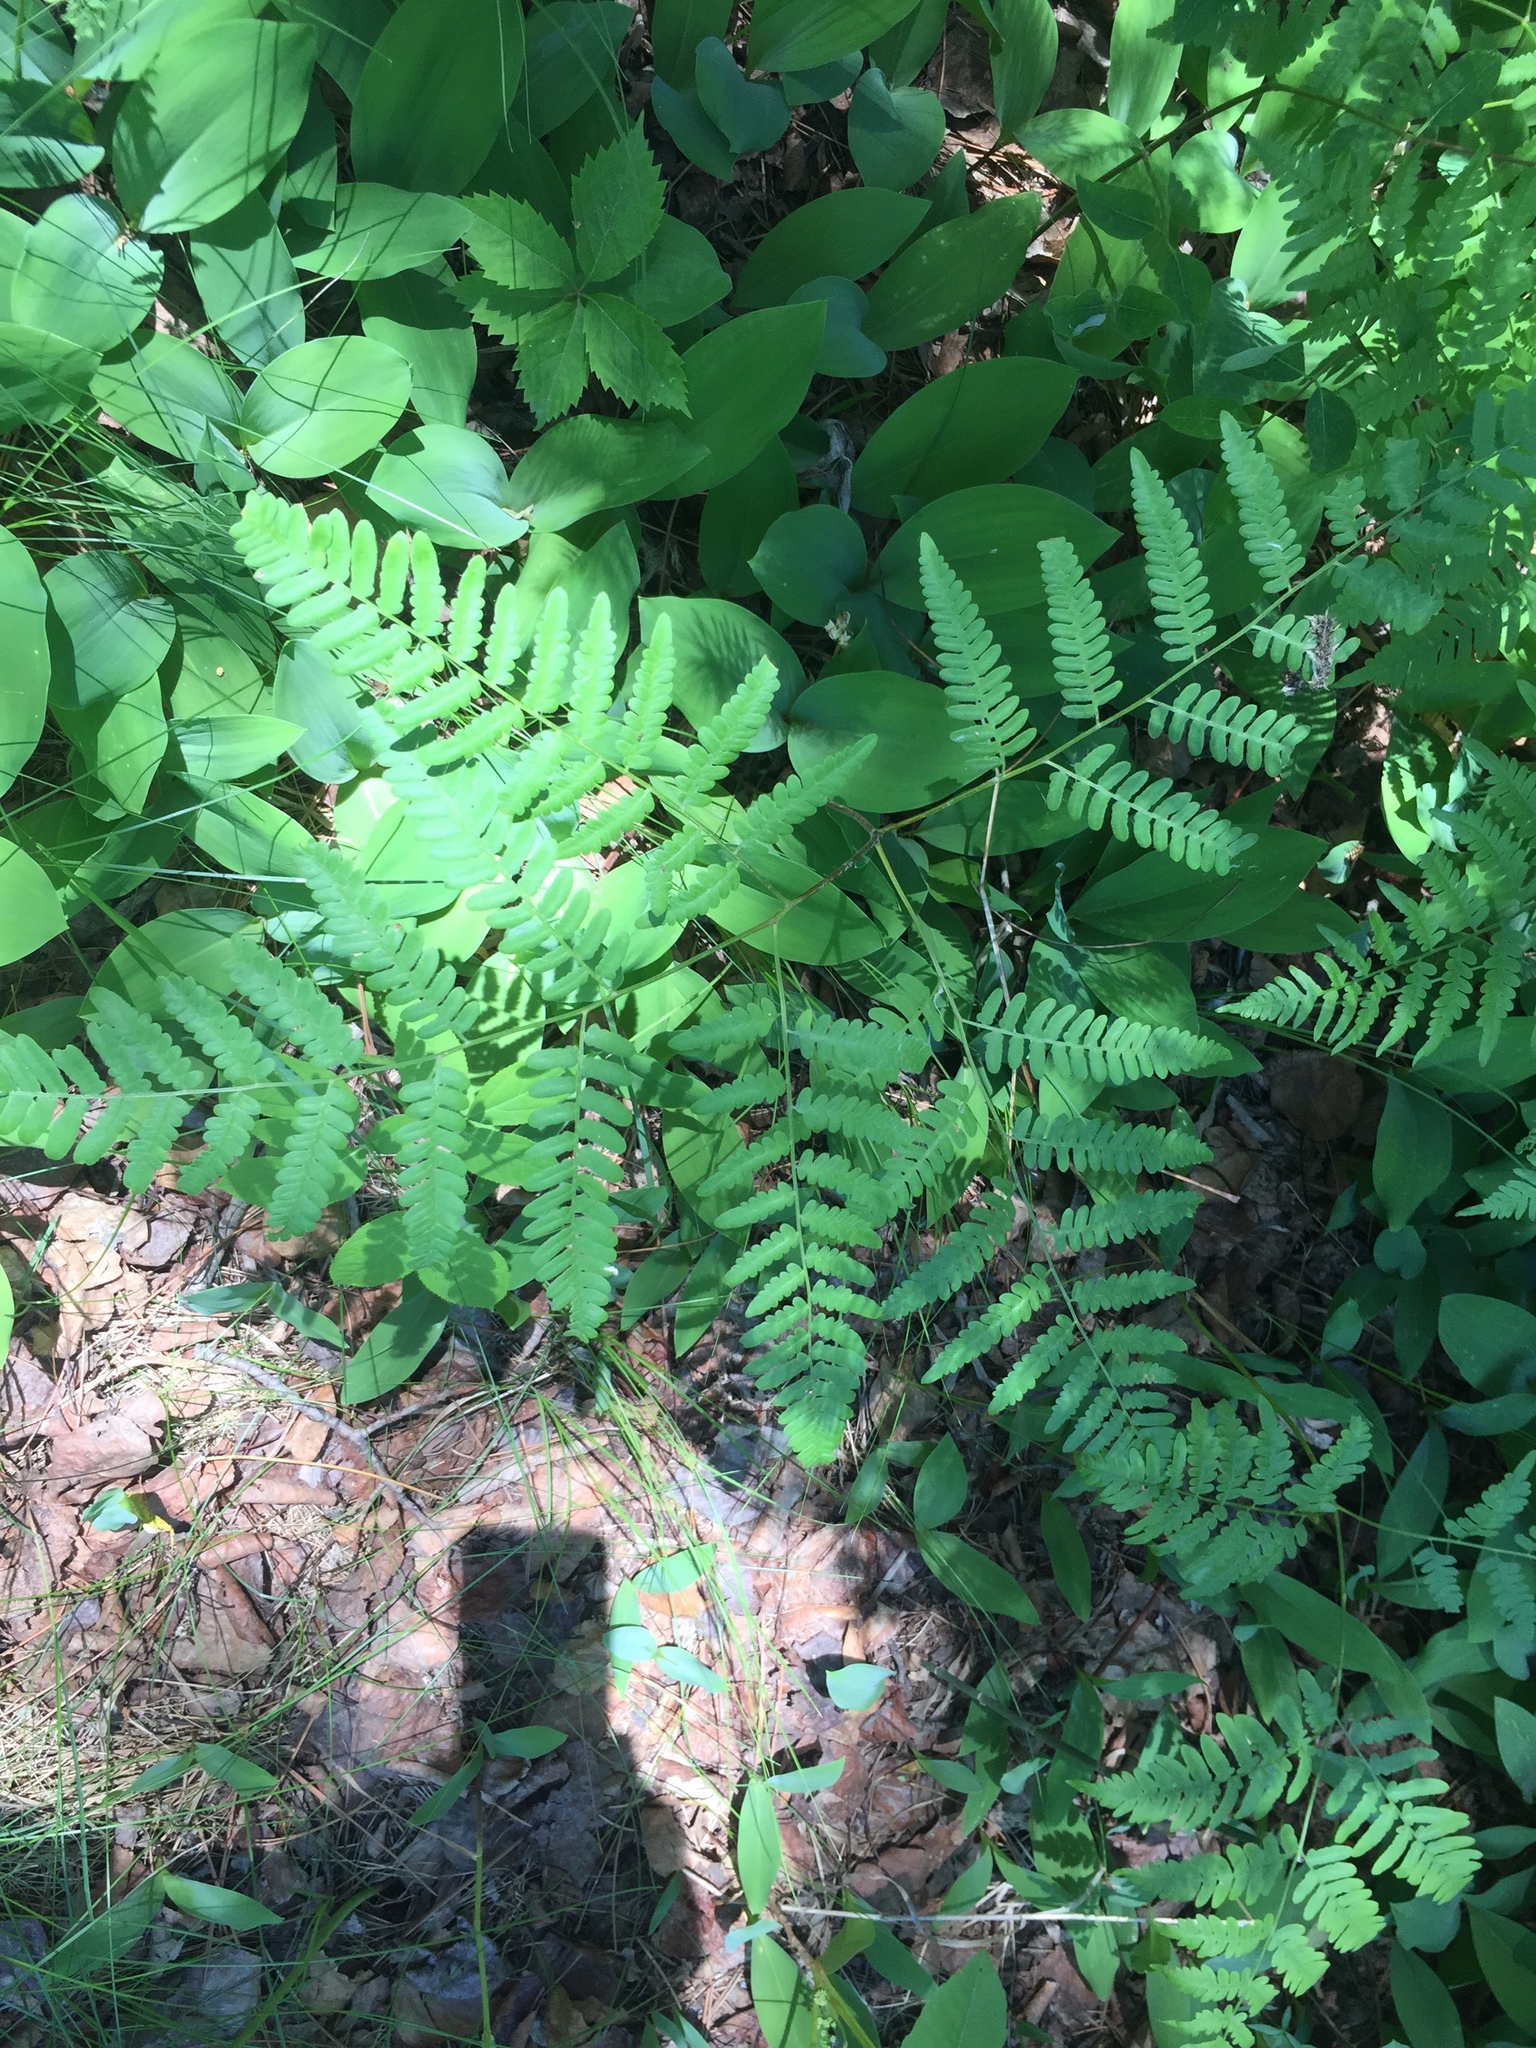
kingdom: Plantae
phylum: Tracheophyta
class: Polypodiopsida
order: Polypodiales
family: Dennstaedtiaceae
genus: Pteridium
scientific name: Pteridium aquilinum
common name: Bracken
